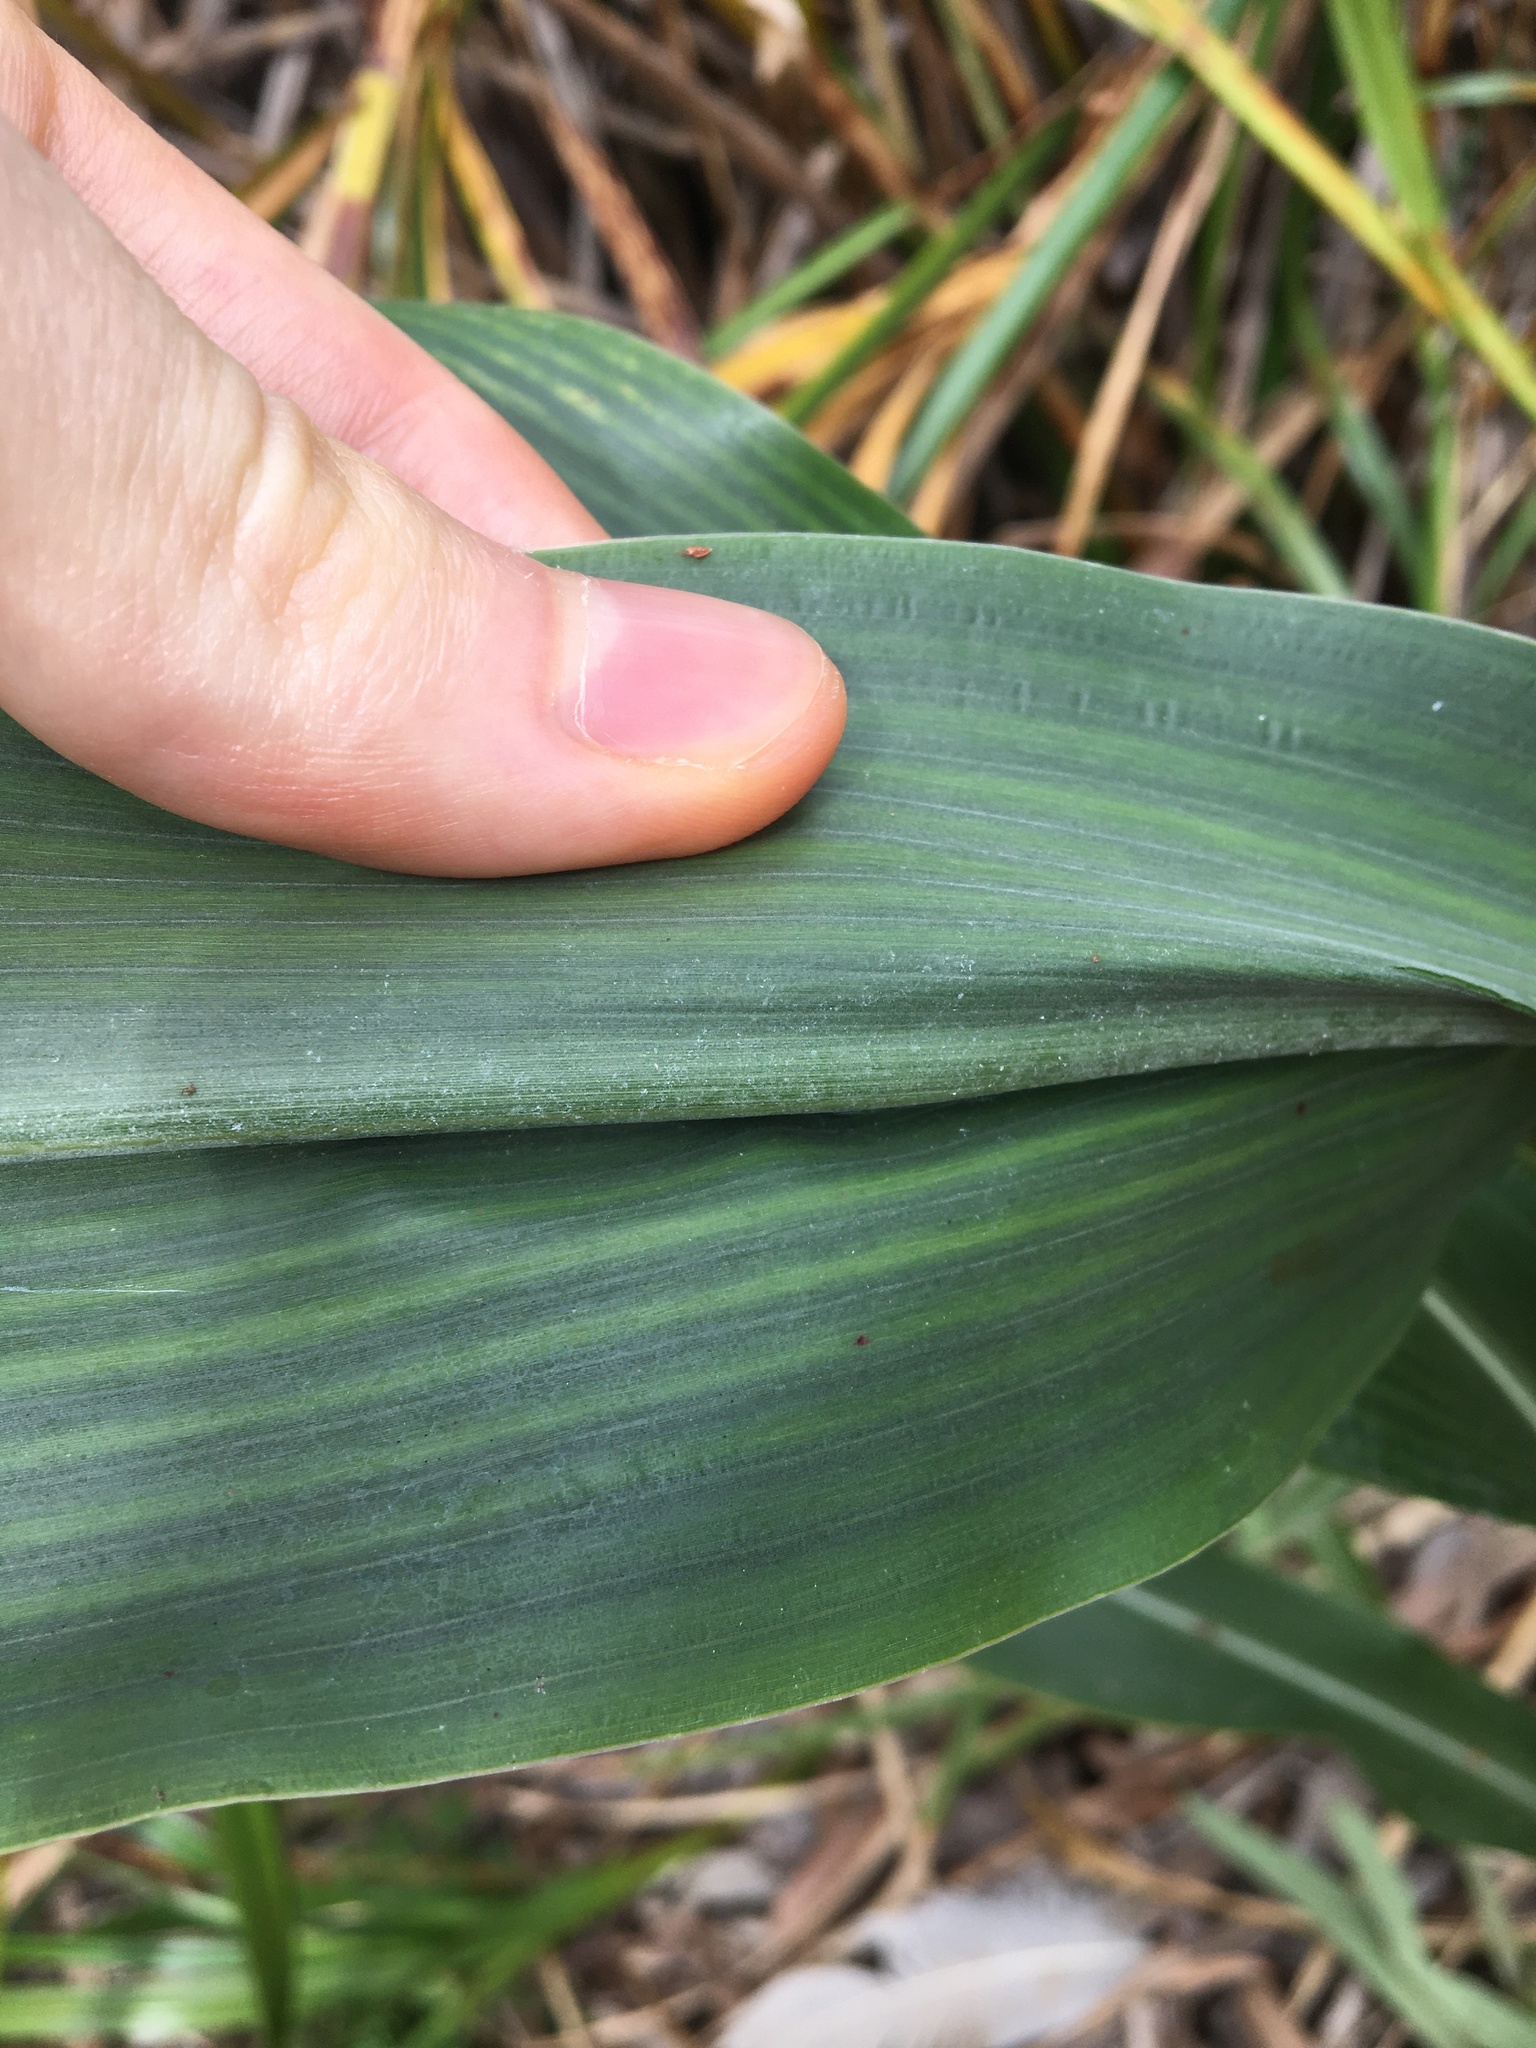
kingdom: Plantae
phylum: Tracheophyta
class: Liliopsida
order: Poales
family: Poaceae
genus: Sorghum
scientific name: Sorghum bicolor
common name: Sorghum
